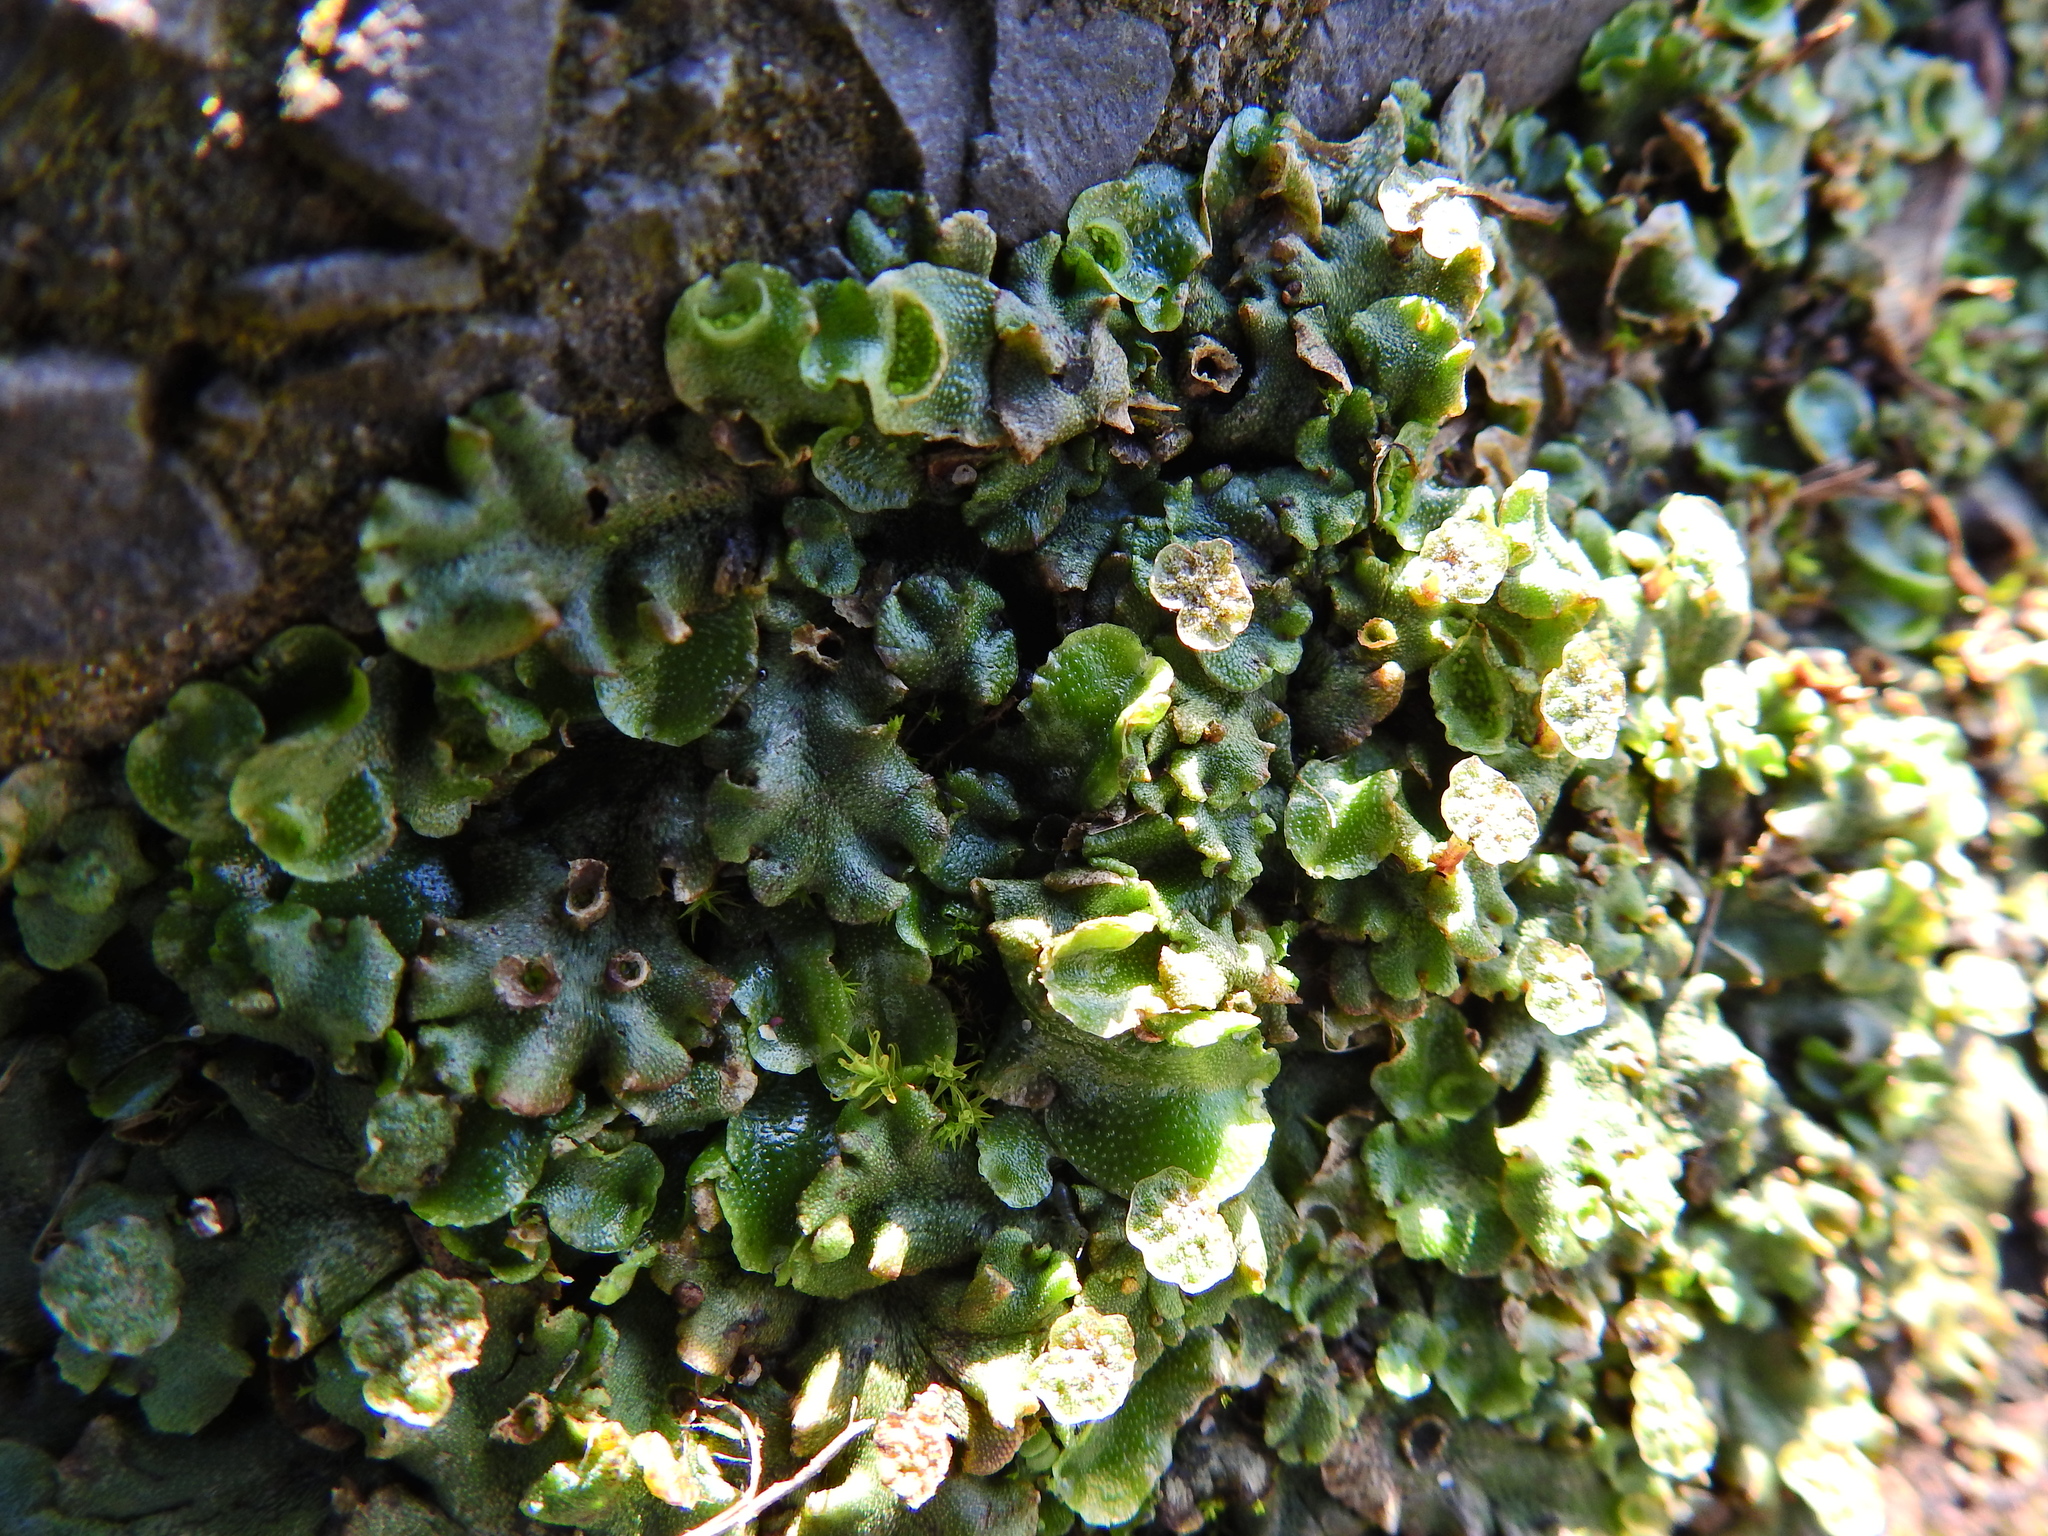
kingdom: Plantae
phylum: Marchantiophyta
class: Marchantiopsida
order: Marchantiales
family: Marchantiaceae
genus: Marchantia
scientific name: Marchantia polymorpha
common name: Common liverwort
